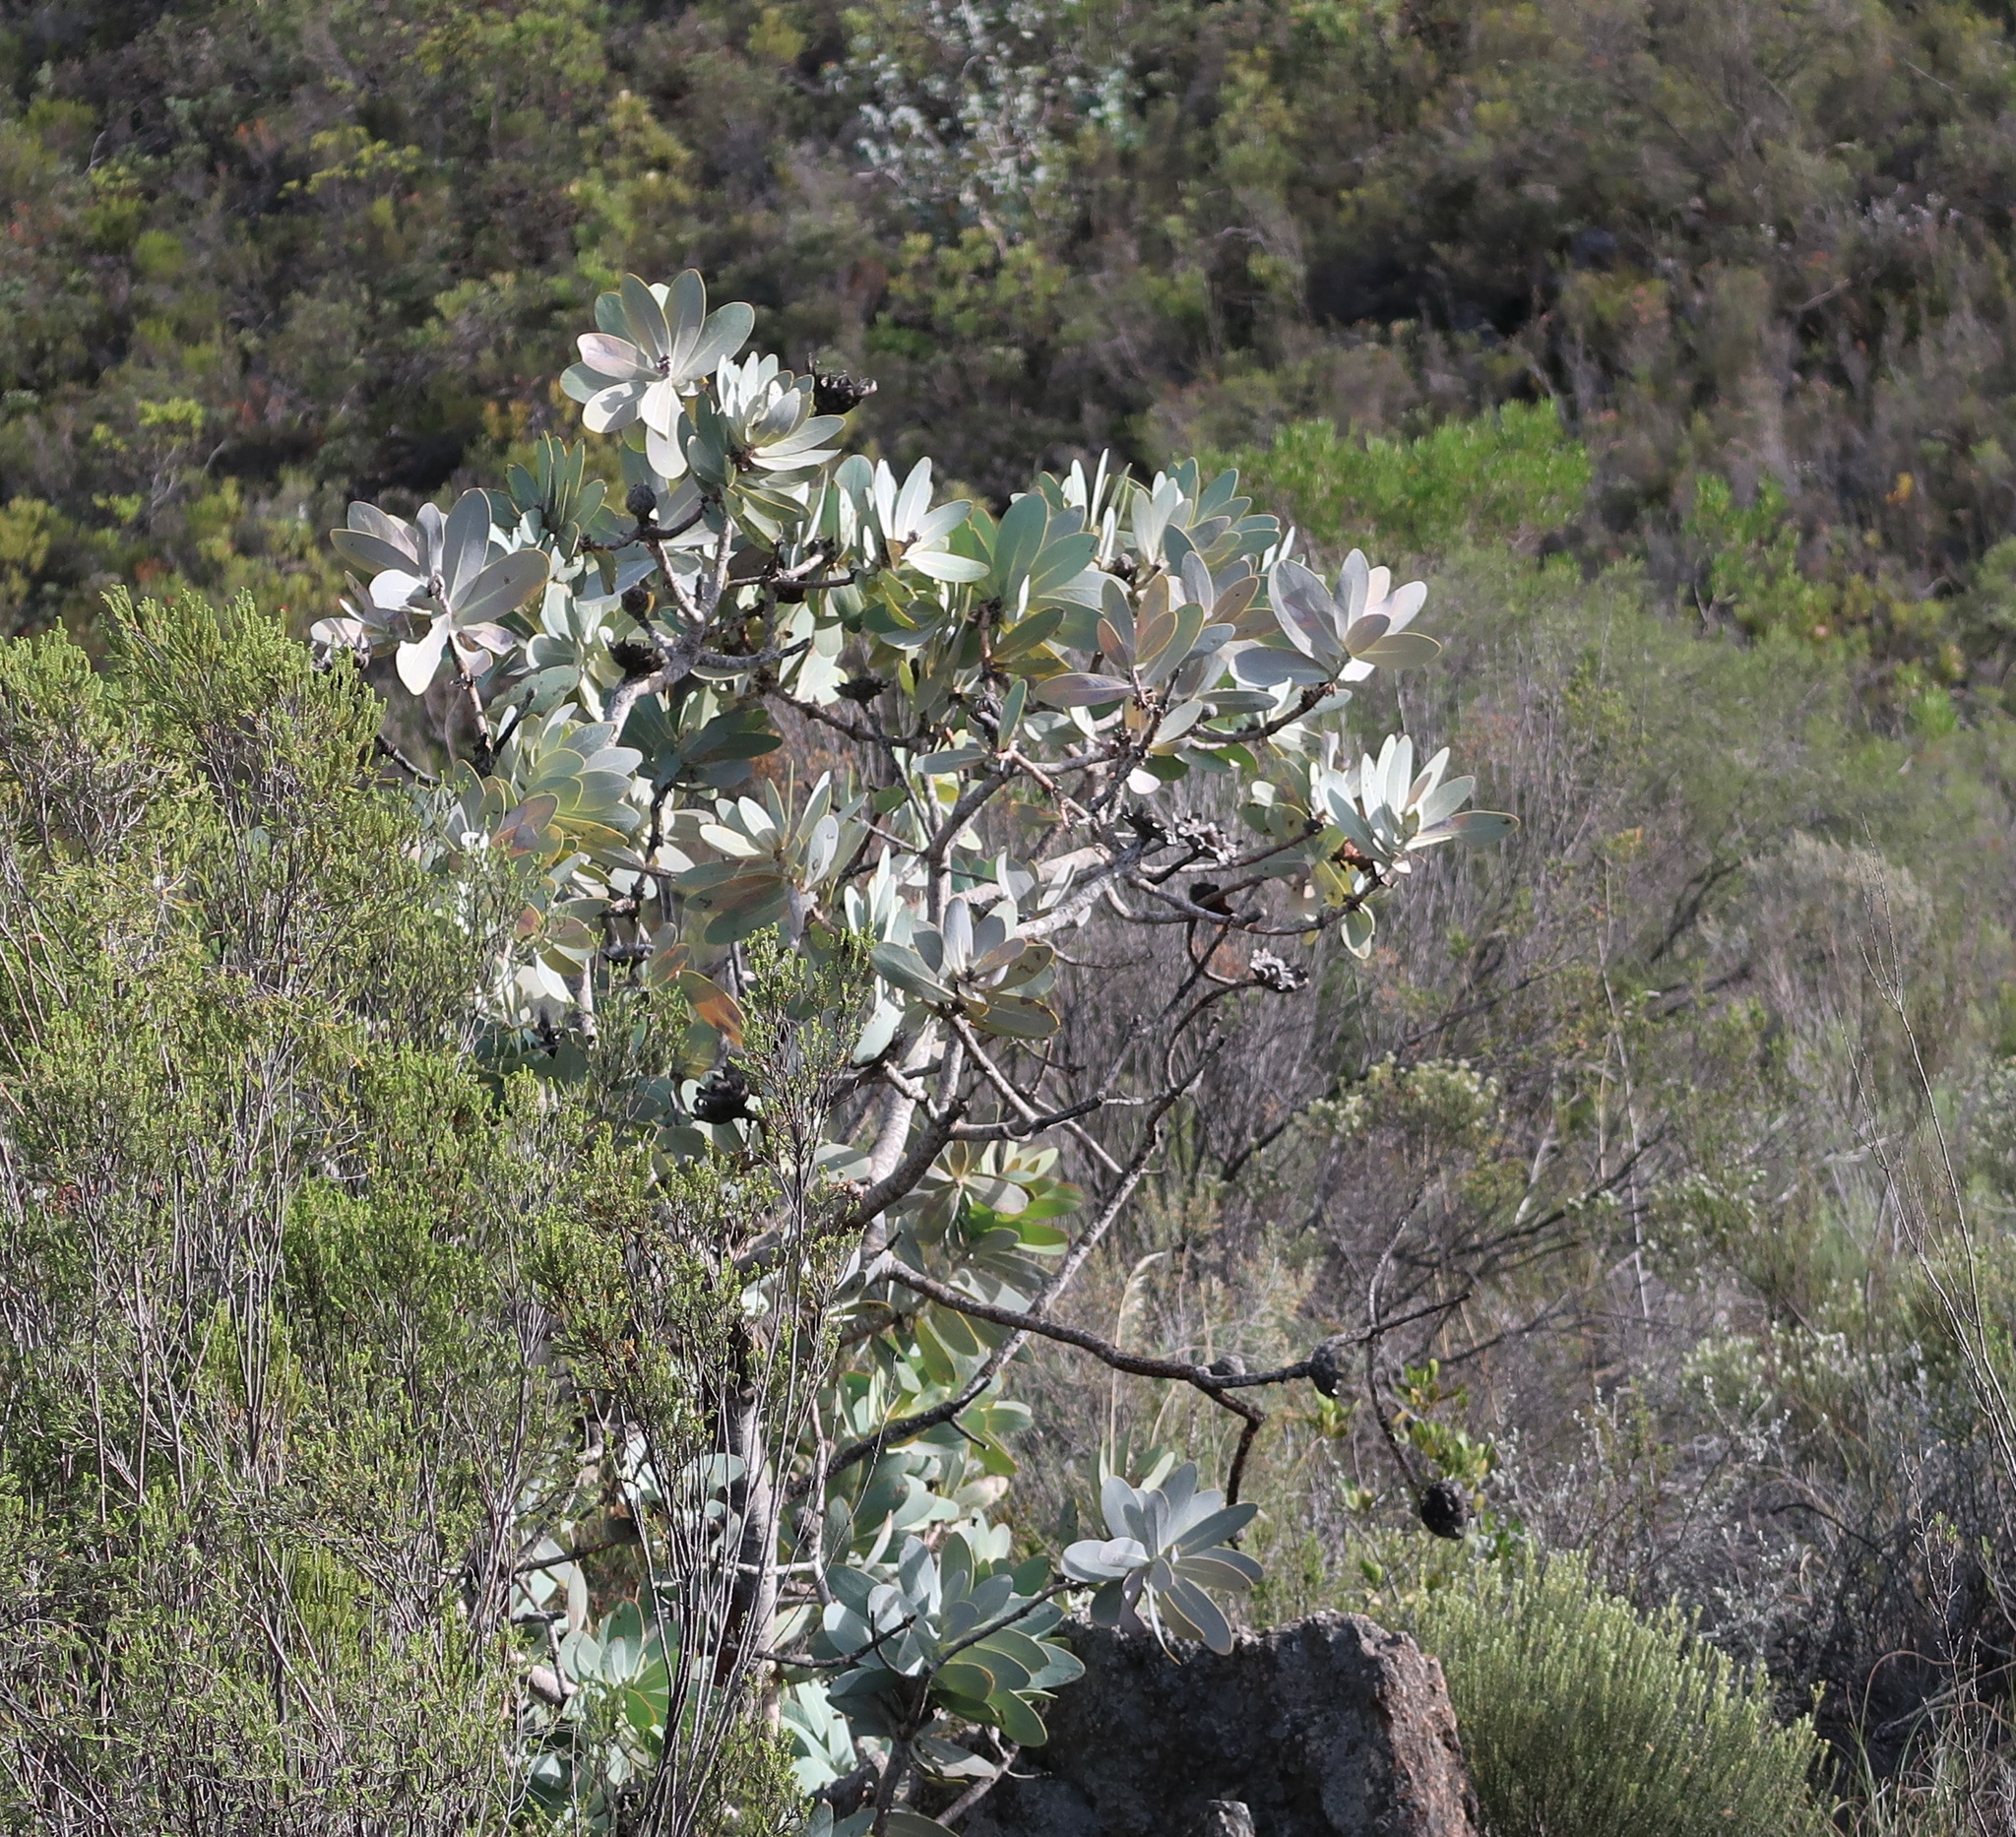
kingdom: Plantae
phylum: Tracheophyta
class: Magnoliopsida
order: Proteales
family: Proteaceae
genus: Protea
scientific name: Protea nitida
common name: Tree protea
